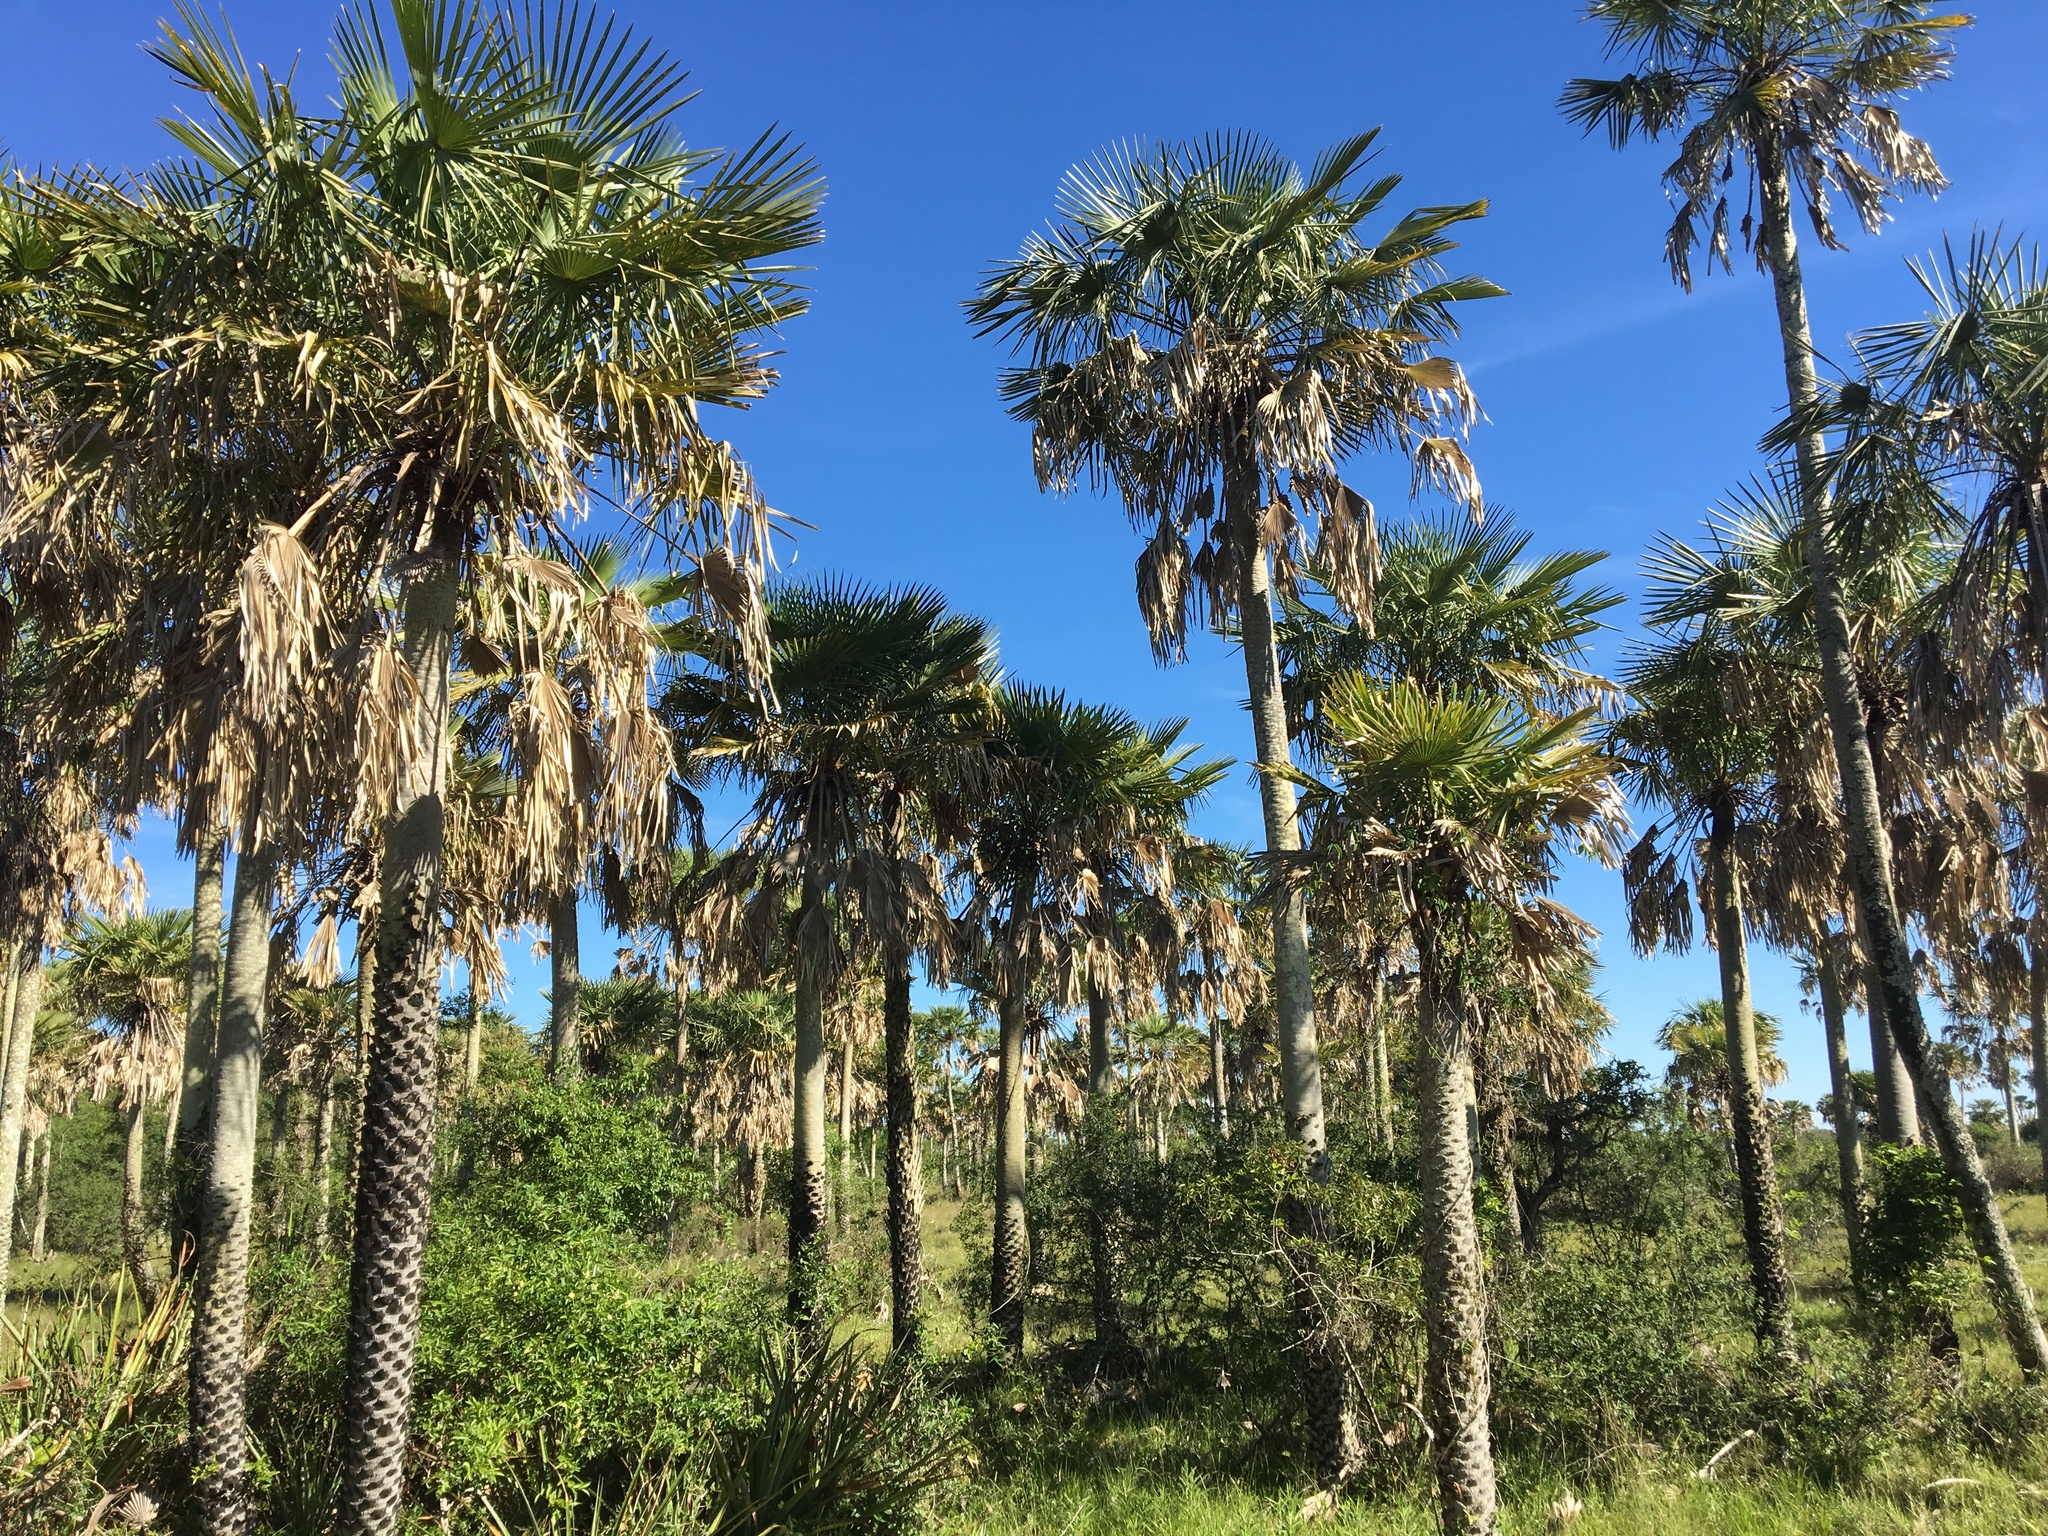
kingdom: Plantae
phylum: Tracheophyta
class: Liliopsida
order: Arecales
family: Arecaceae
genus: Copernicia
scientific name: Copernicia alba
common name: Caranday palm
